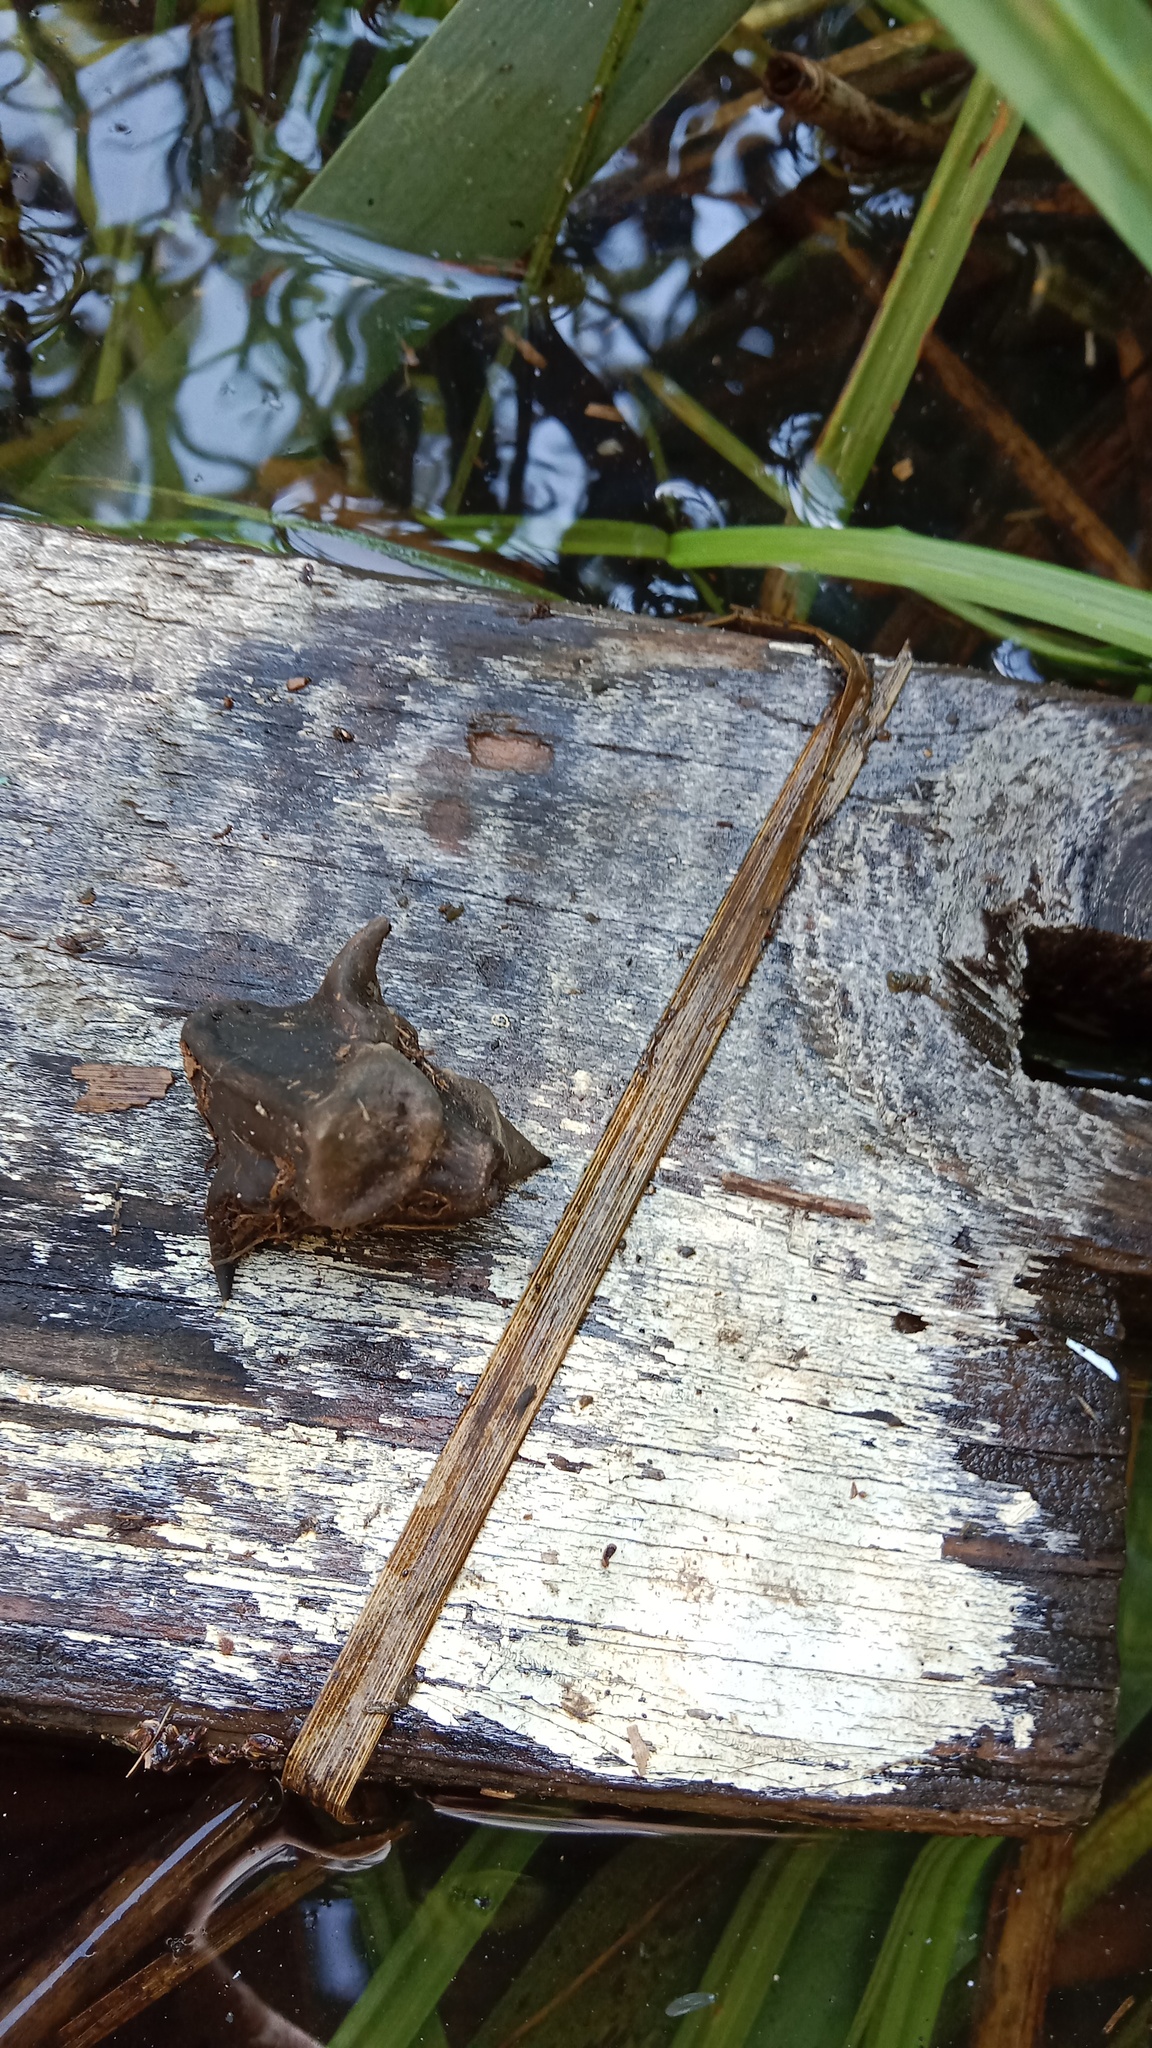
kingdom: Plantae
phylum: Tracheophyta
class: Magnoliopsida
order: Myrtales
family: Lythraceae
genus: Trapa
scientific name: Trapa natans
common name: Water chestnut
